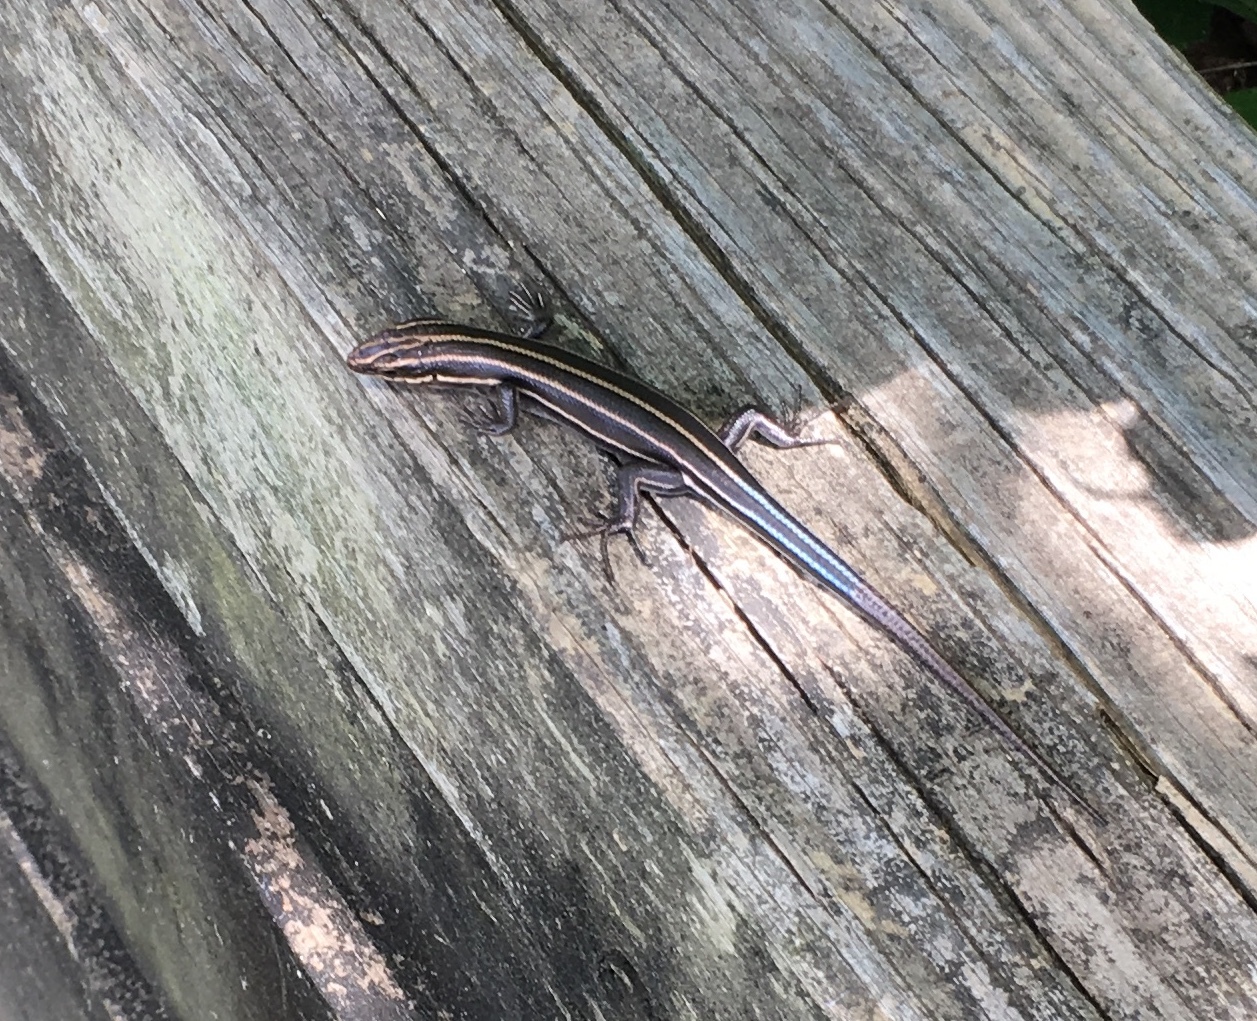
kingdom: Animalia
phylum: Chordata
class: Squamata
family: Scincidae
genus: Plestiodon
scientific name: Plestiodon fasciatus
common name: Five-lined skink
